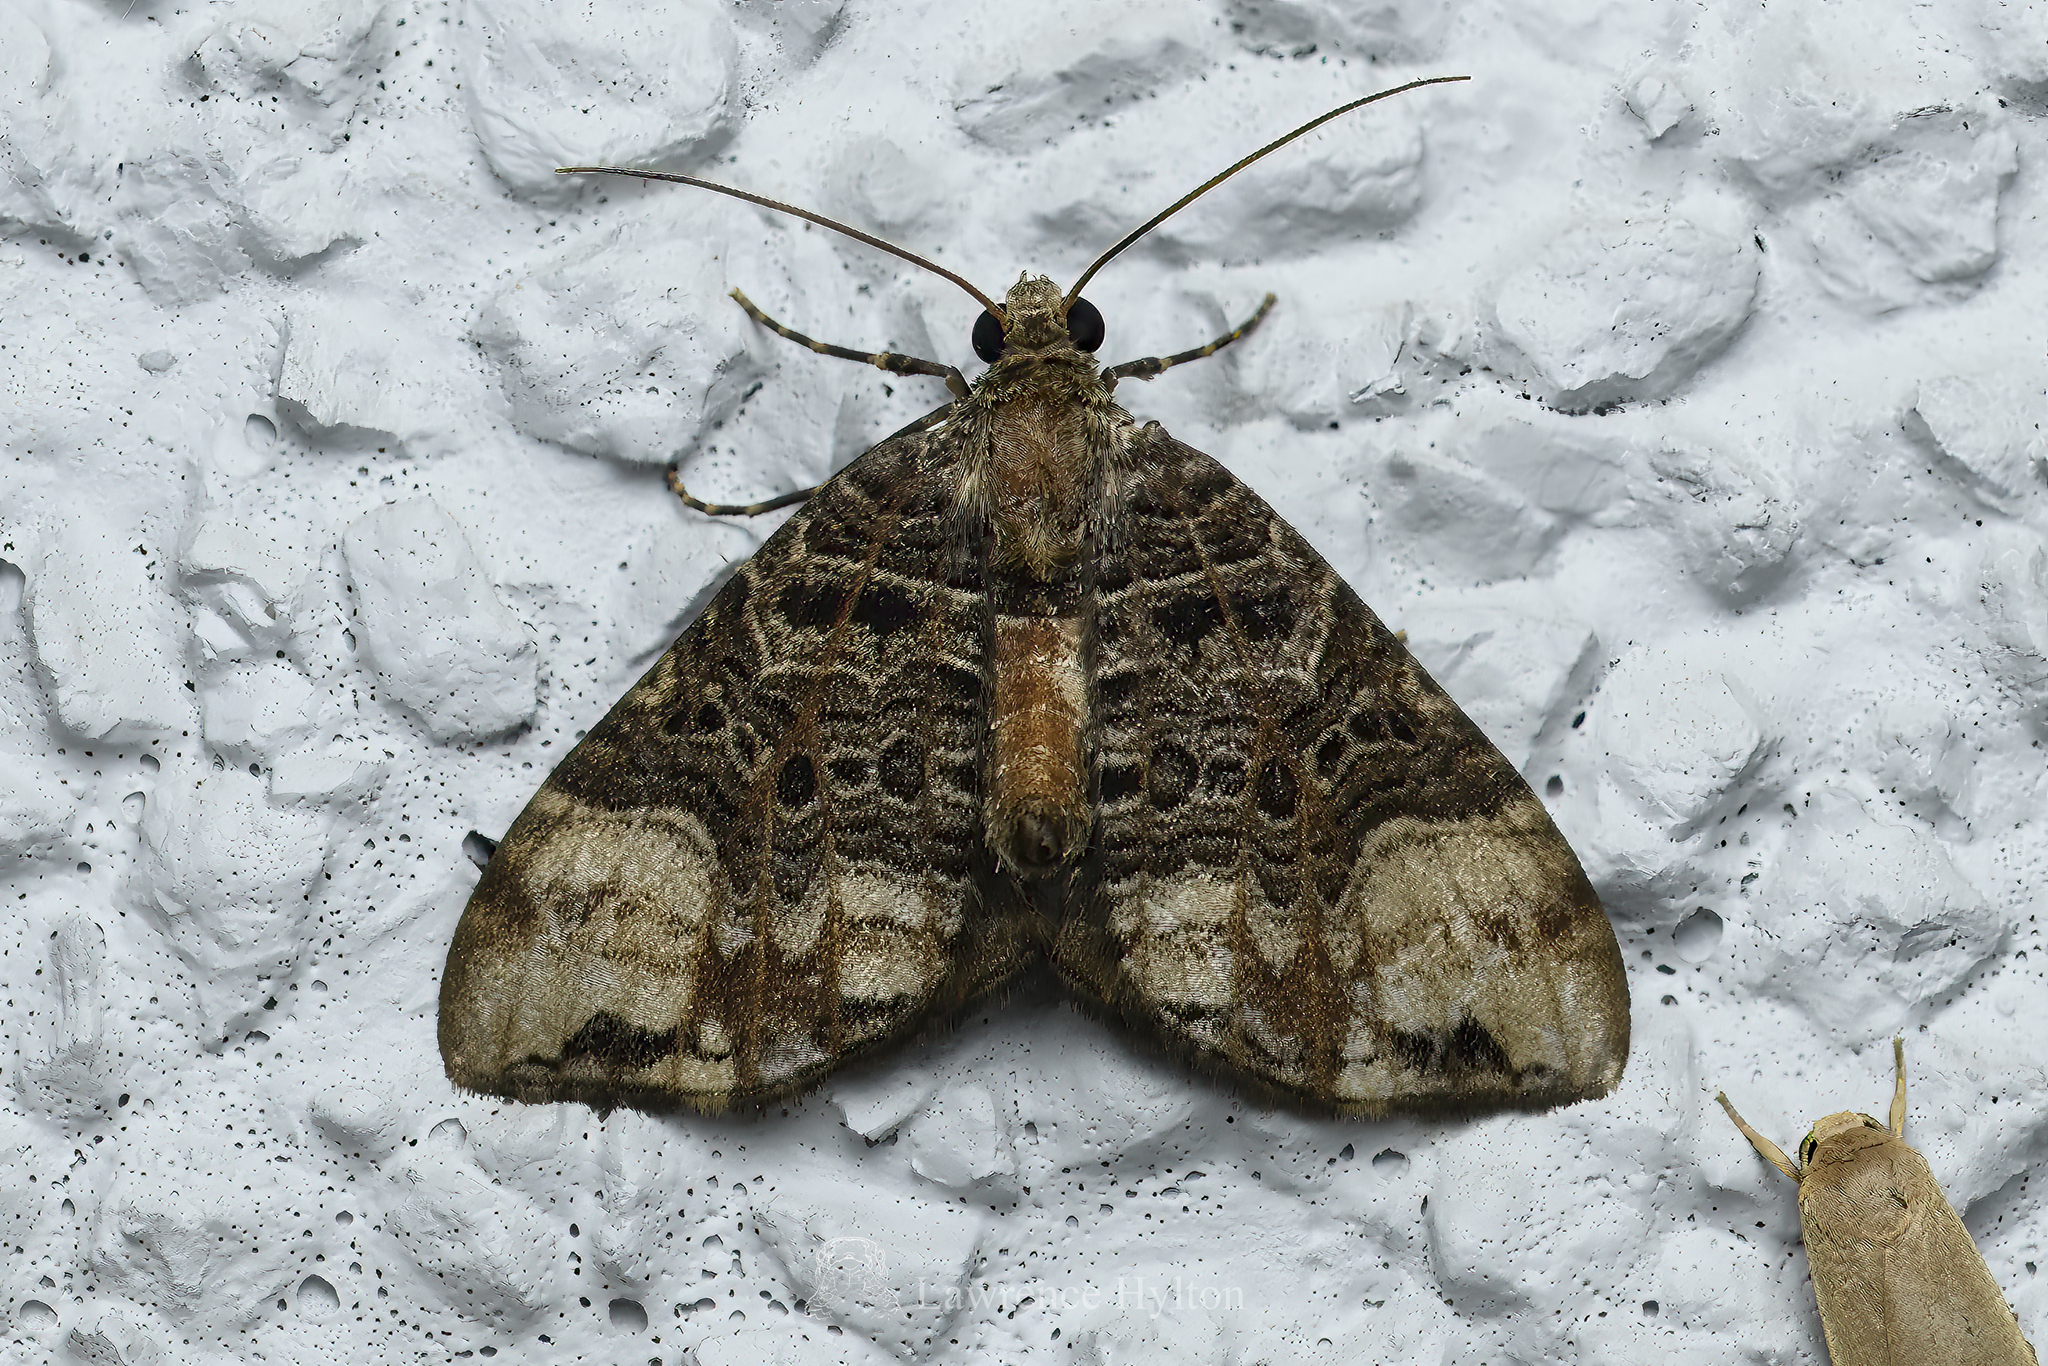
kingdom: Animalia
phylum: Arthropoda
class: Insecta
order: Lepidoptera
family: Geometridae
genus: Ecliptopera
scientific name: Ecliptopera furva
